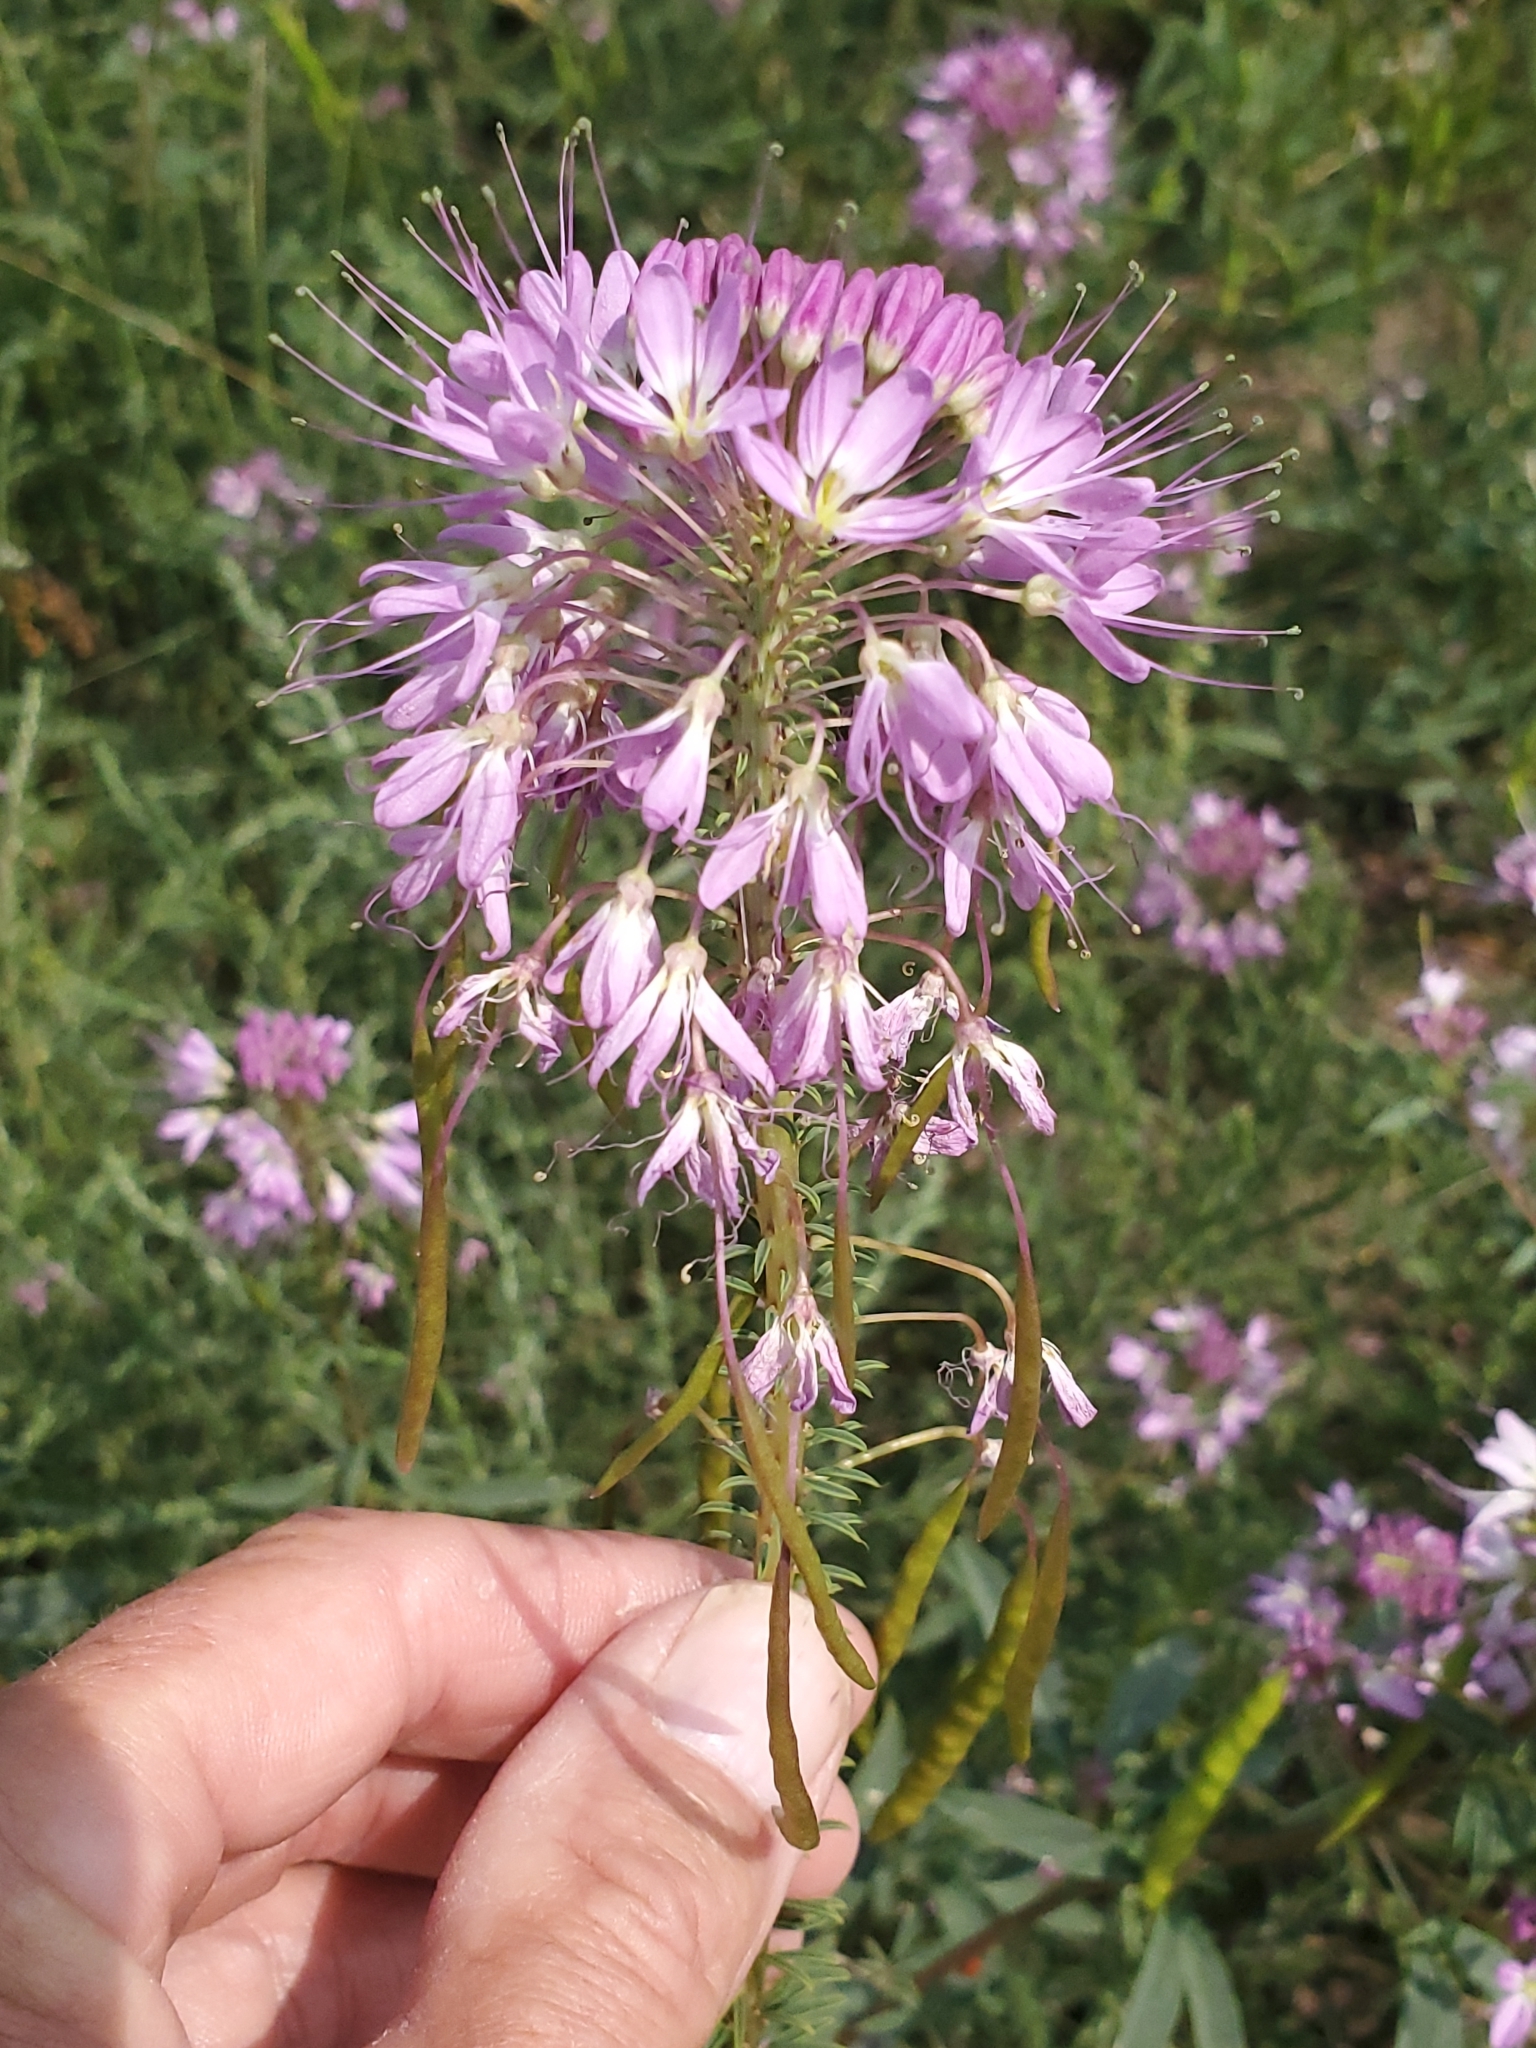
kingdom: Plantae
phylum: Tracheophyta
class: Magnoliopsida
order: Brassicales
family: Cleomaceae
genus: Cleomella
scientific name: Cleomella serrulata
